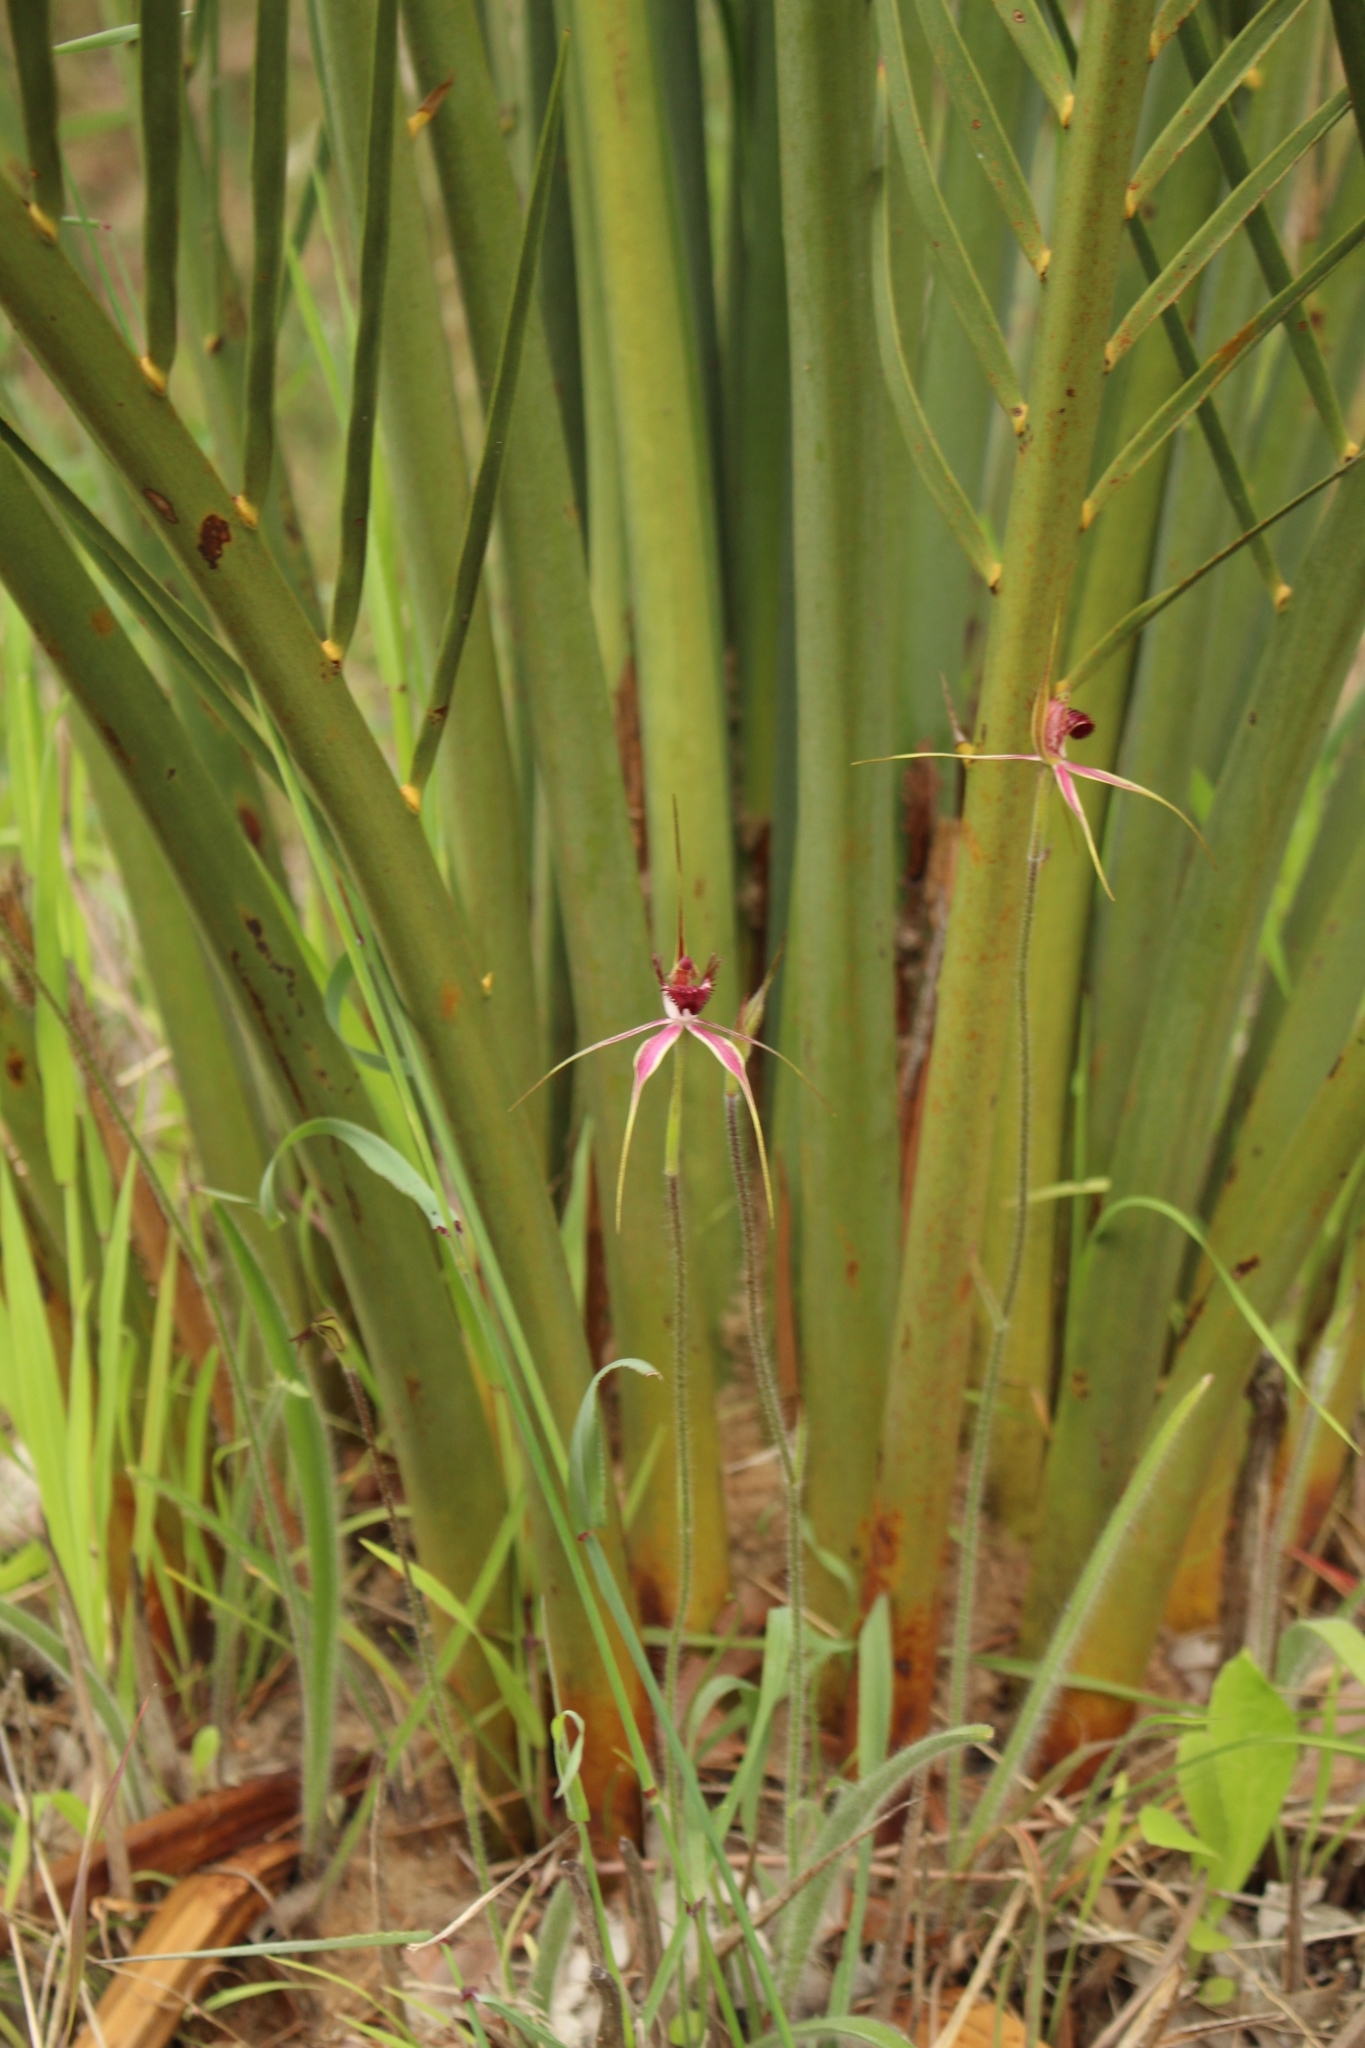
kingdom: Plantae
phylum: Tracheophyta
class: Liliopsida
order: Asparagales
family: Orchidaceae
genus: Caladenia
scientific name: Caladenia arenicola
